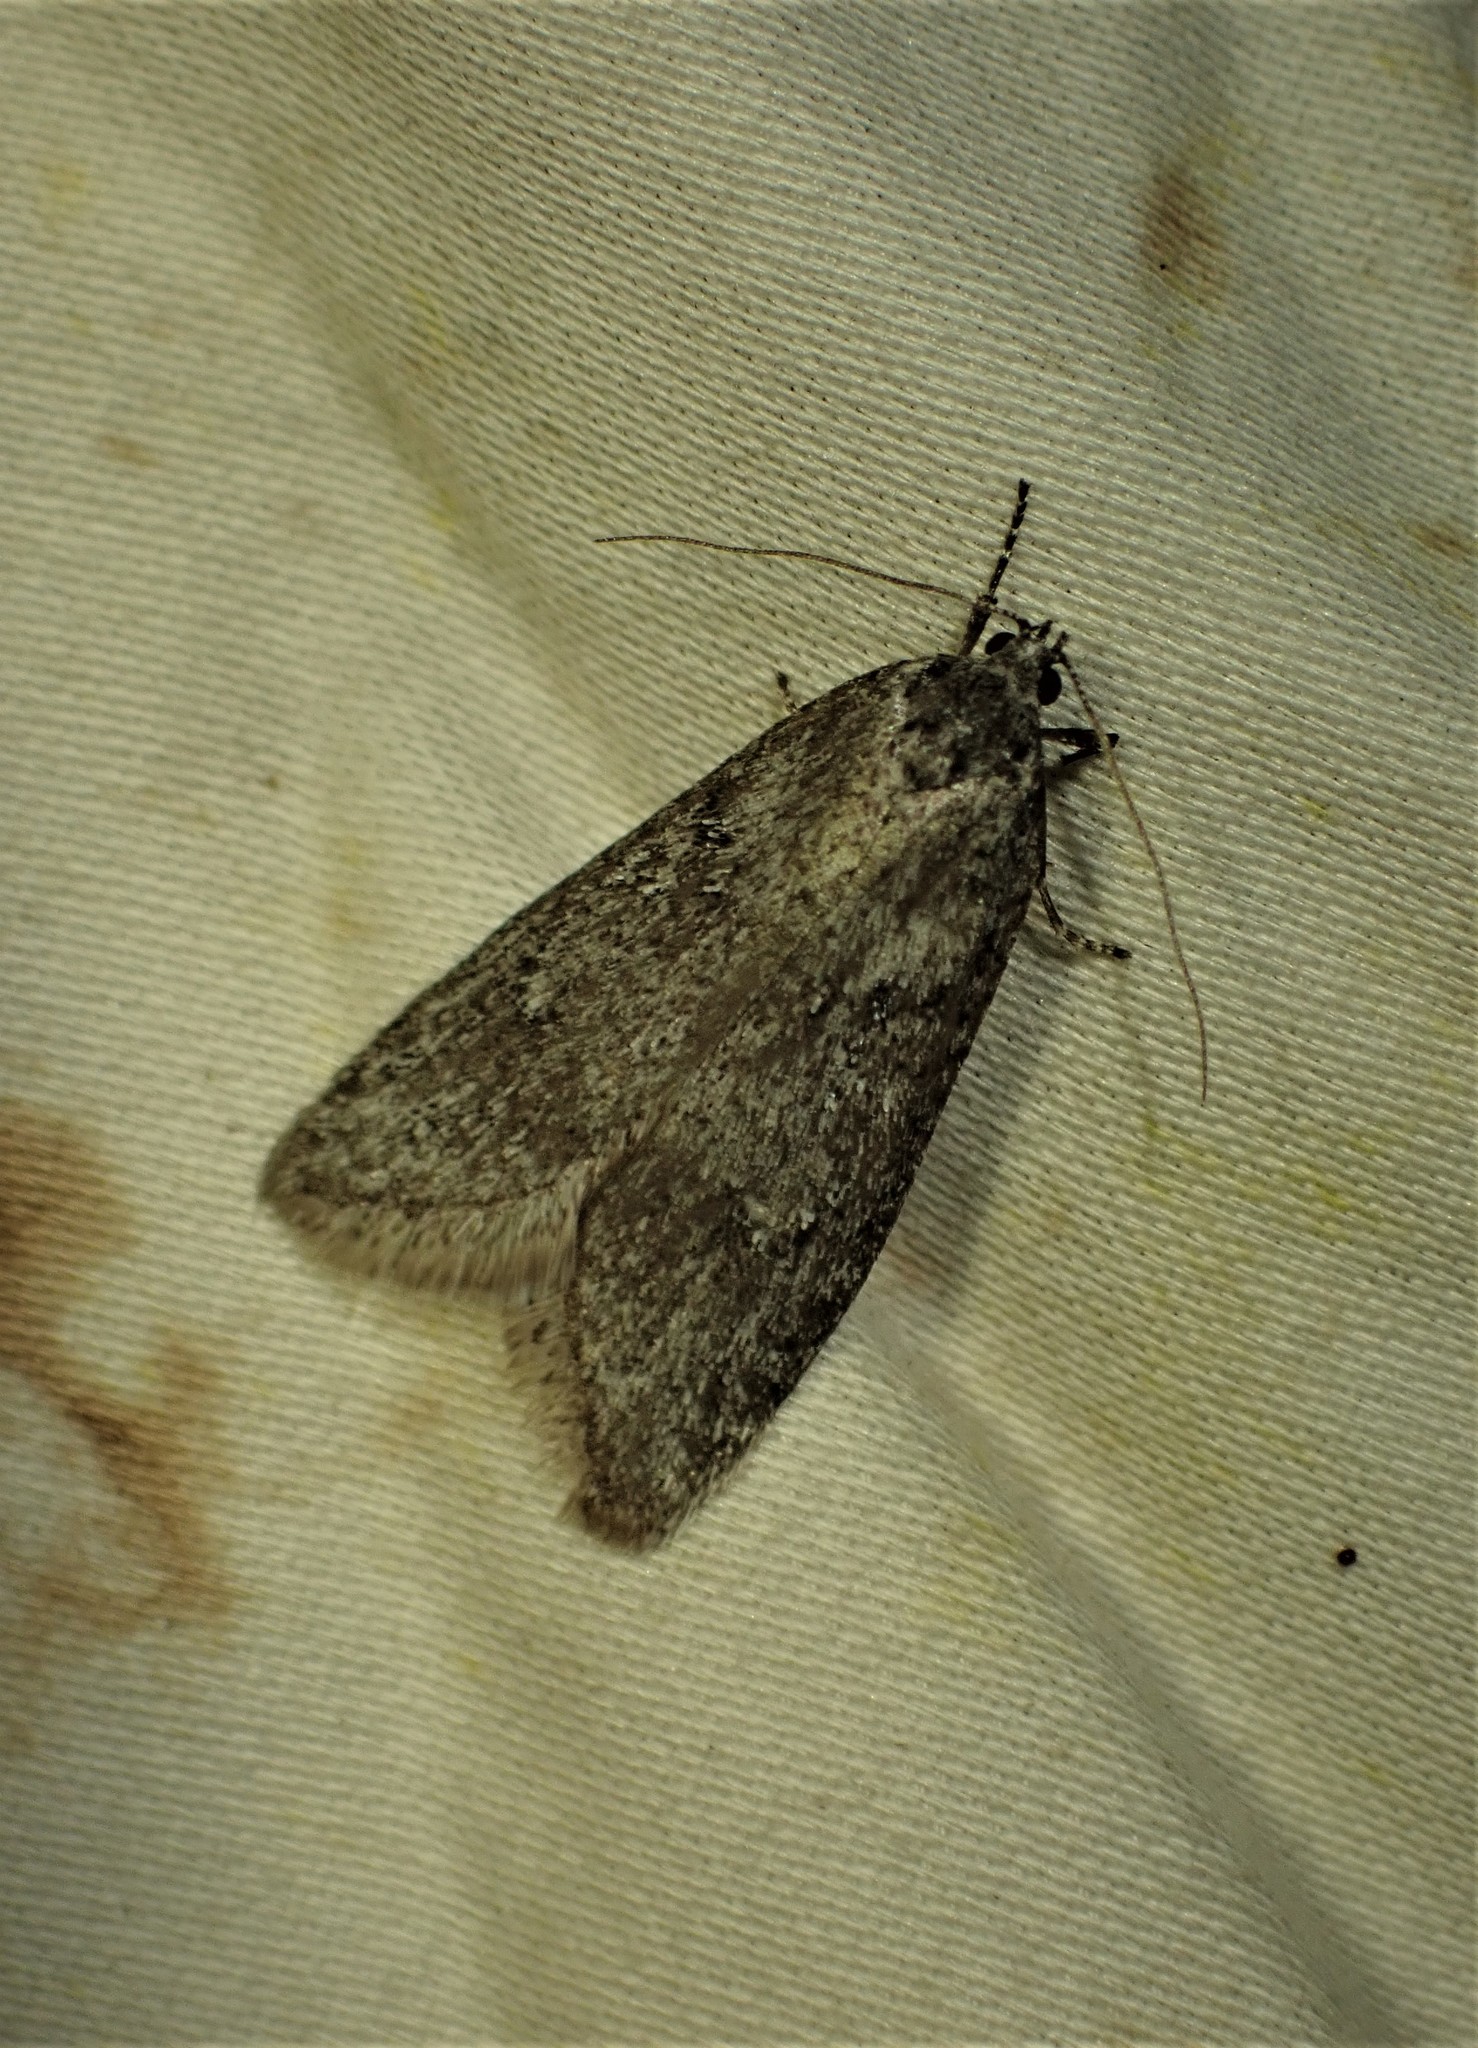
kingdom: Animalia
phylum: Arthropoda
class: Insecta
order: Lepidoptera
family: Depressariidae
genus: Semioscopis
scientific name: Semioscopis inornata
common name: Poplar micromoth
